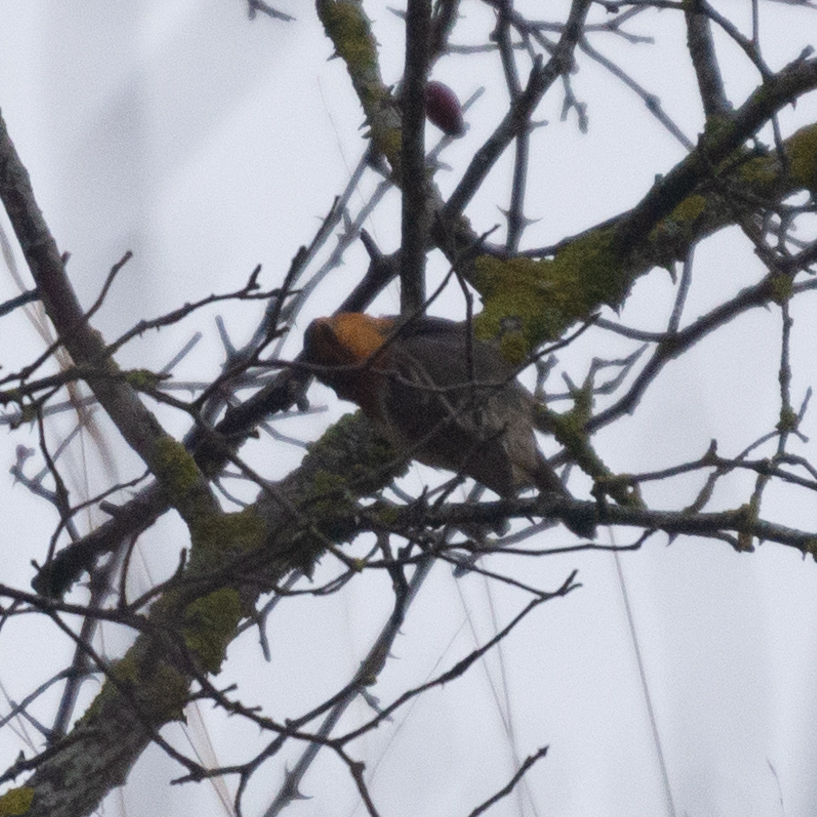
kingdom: Animalia
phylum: Chordata
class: Aves
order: Passeriformes
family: Muscicapidae
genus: Erithacus
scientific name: Erithacus rubecula
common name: European robin
